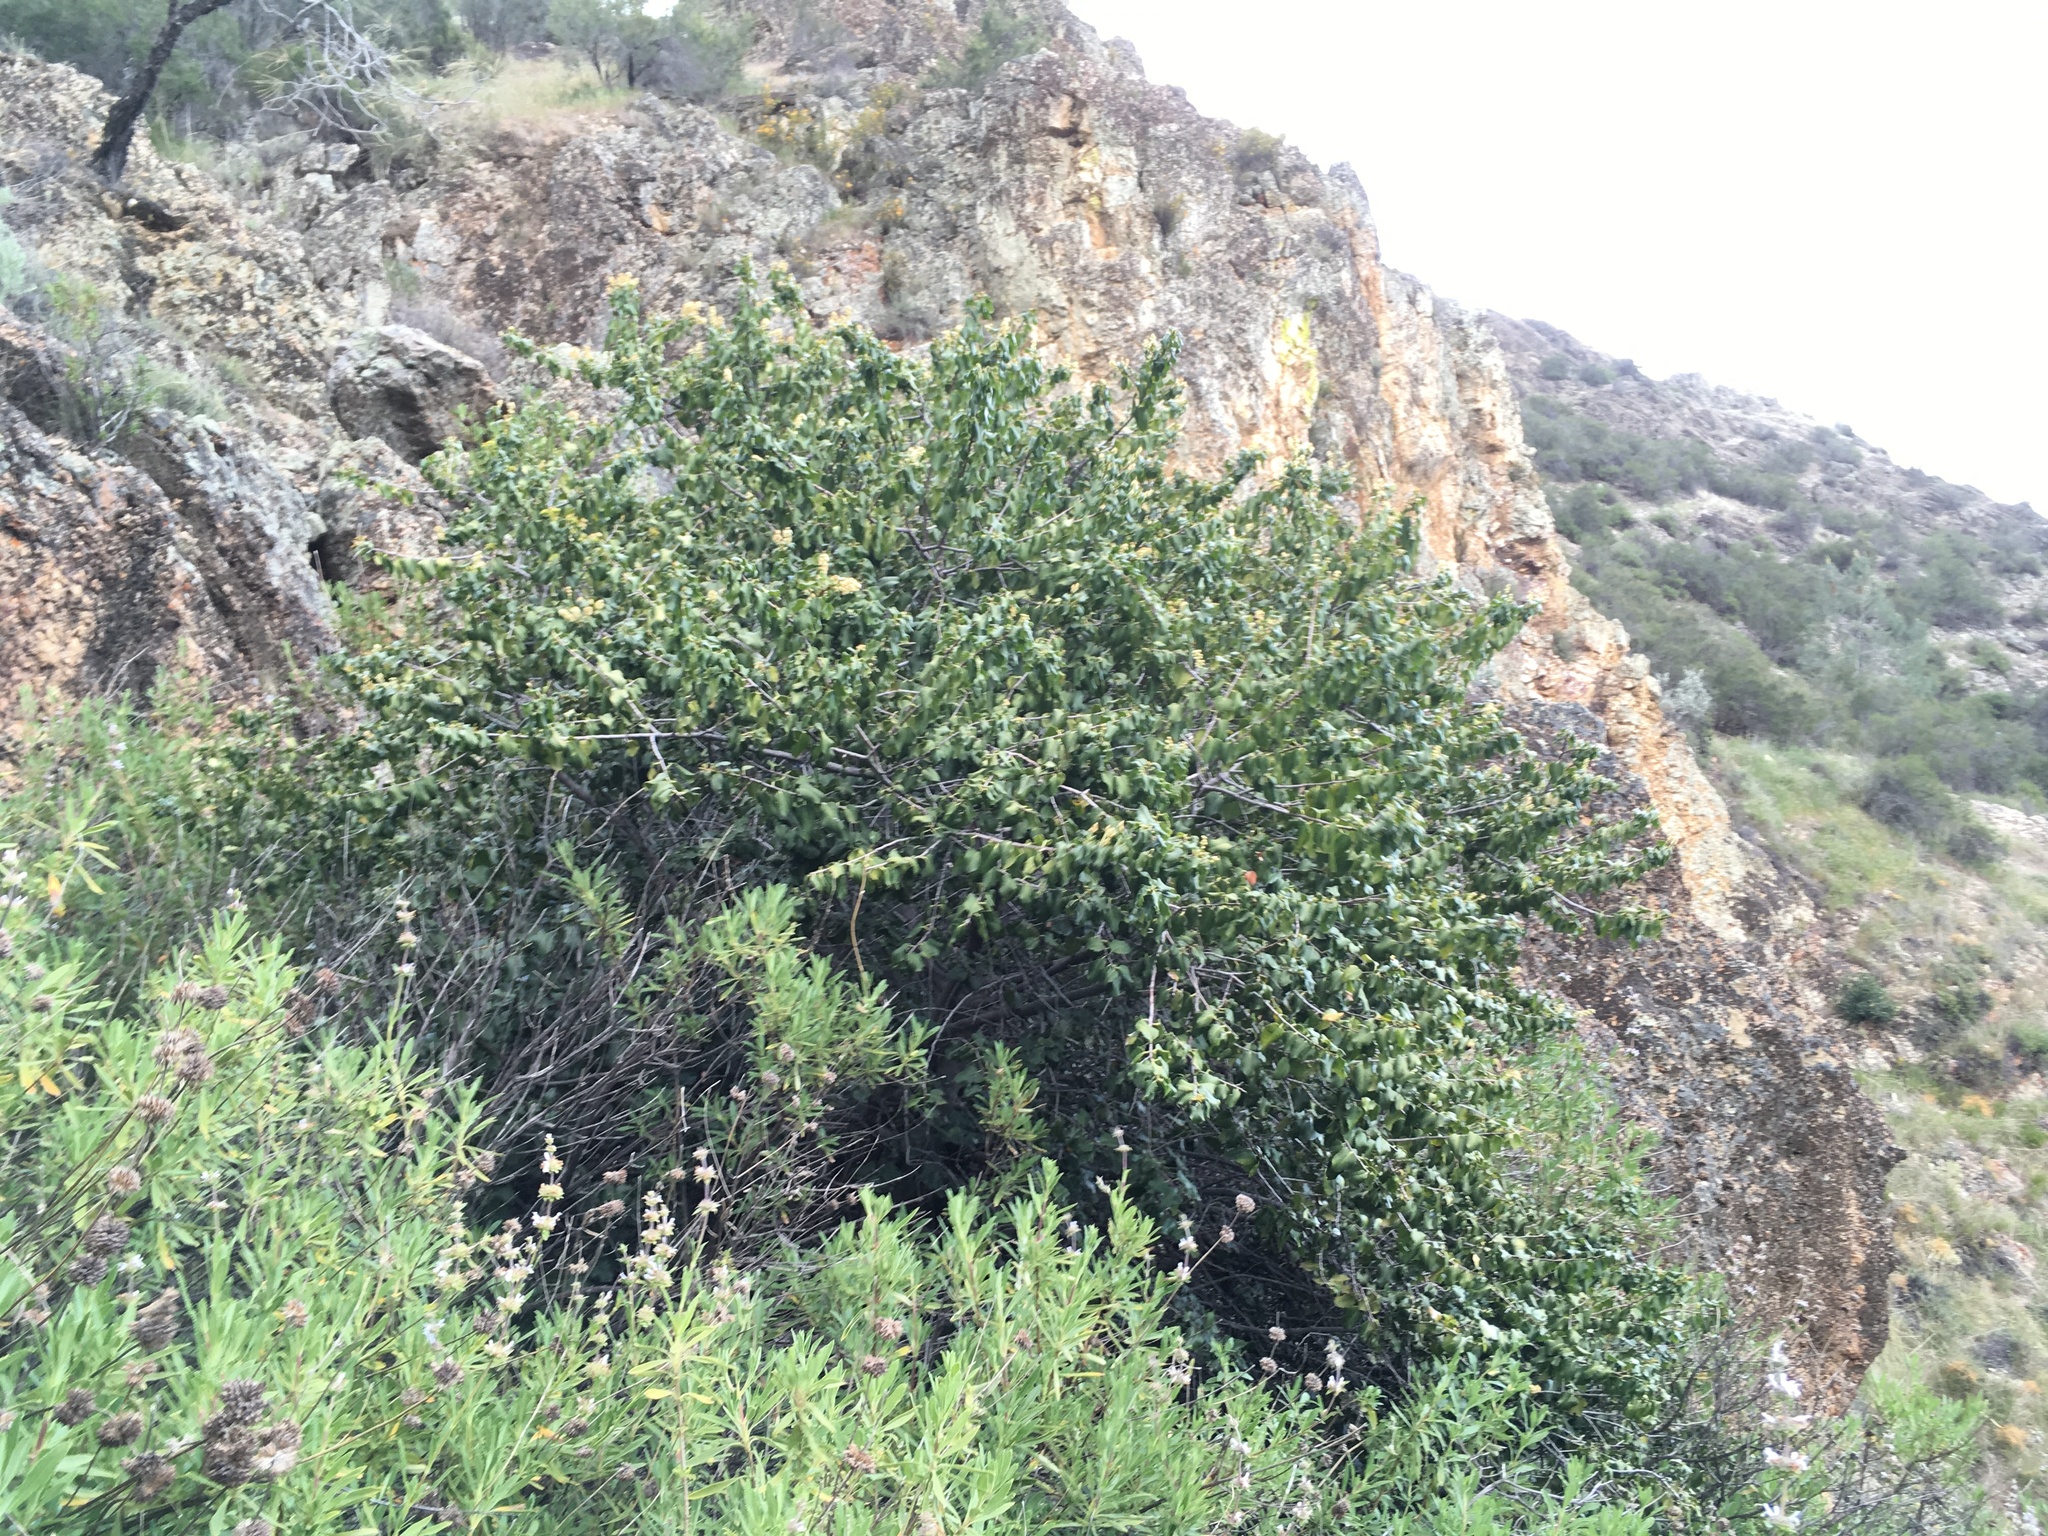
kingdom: Plantae
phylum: Tracheophyta
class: Magnoliopsida
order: Rosales
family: Rosaceae
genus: Prunus
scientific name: Prunus ilicifolia
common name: Hollyleaf cherry
